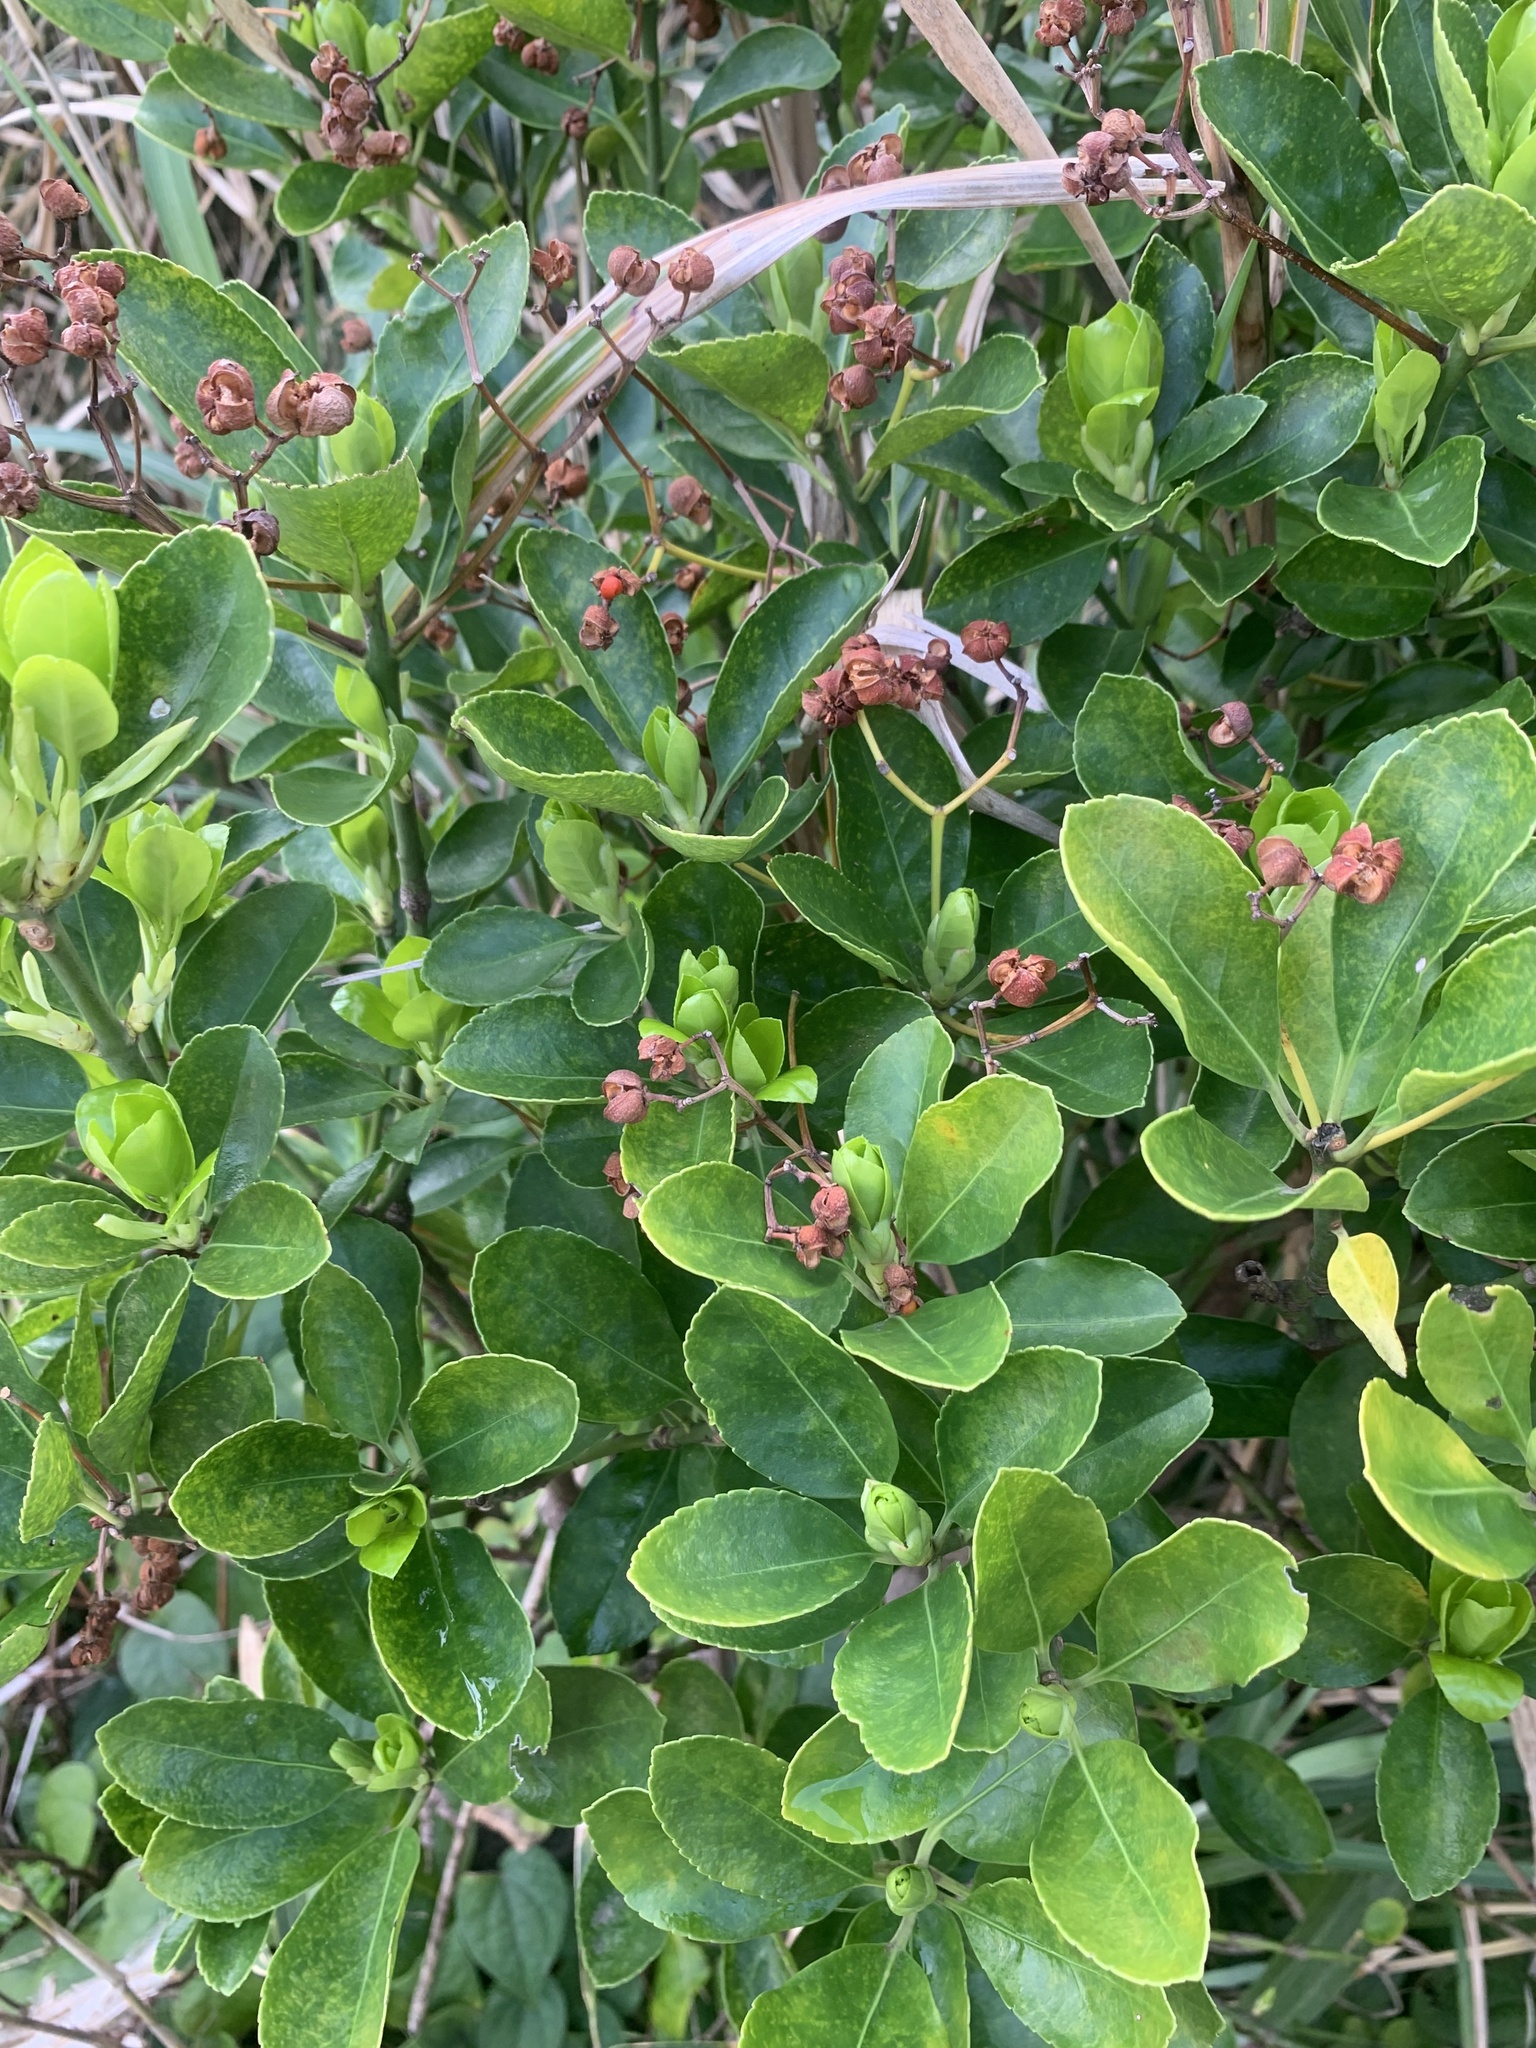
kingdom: Plantae
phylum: Tracheophyta
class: Magnoliopsida
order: Celastrales
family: Celastraceae
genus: Euonymus
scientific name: Euonymus japonicus
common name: Japanese spindletree
